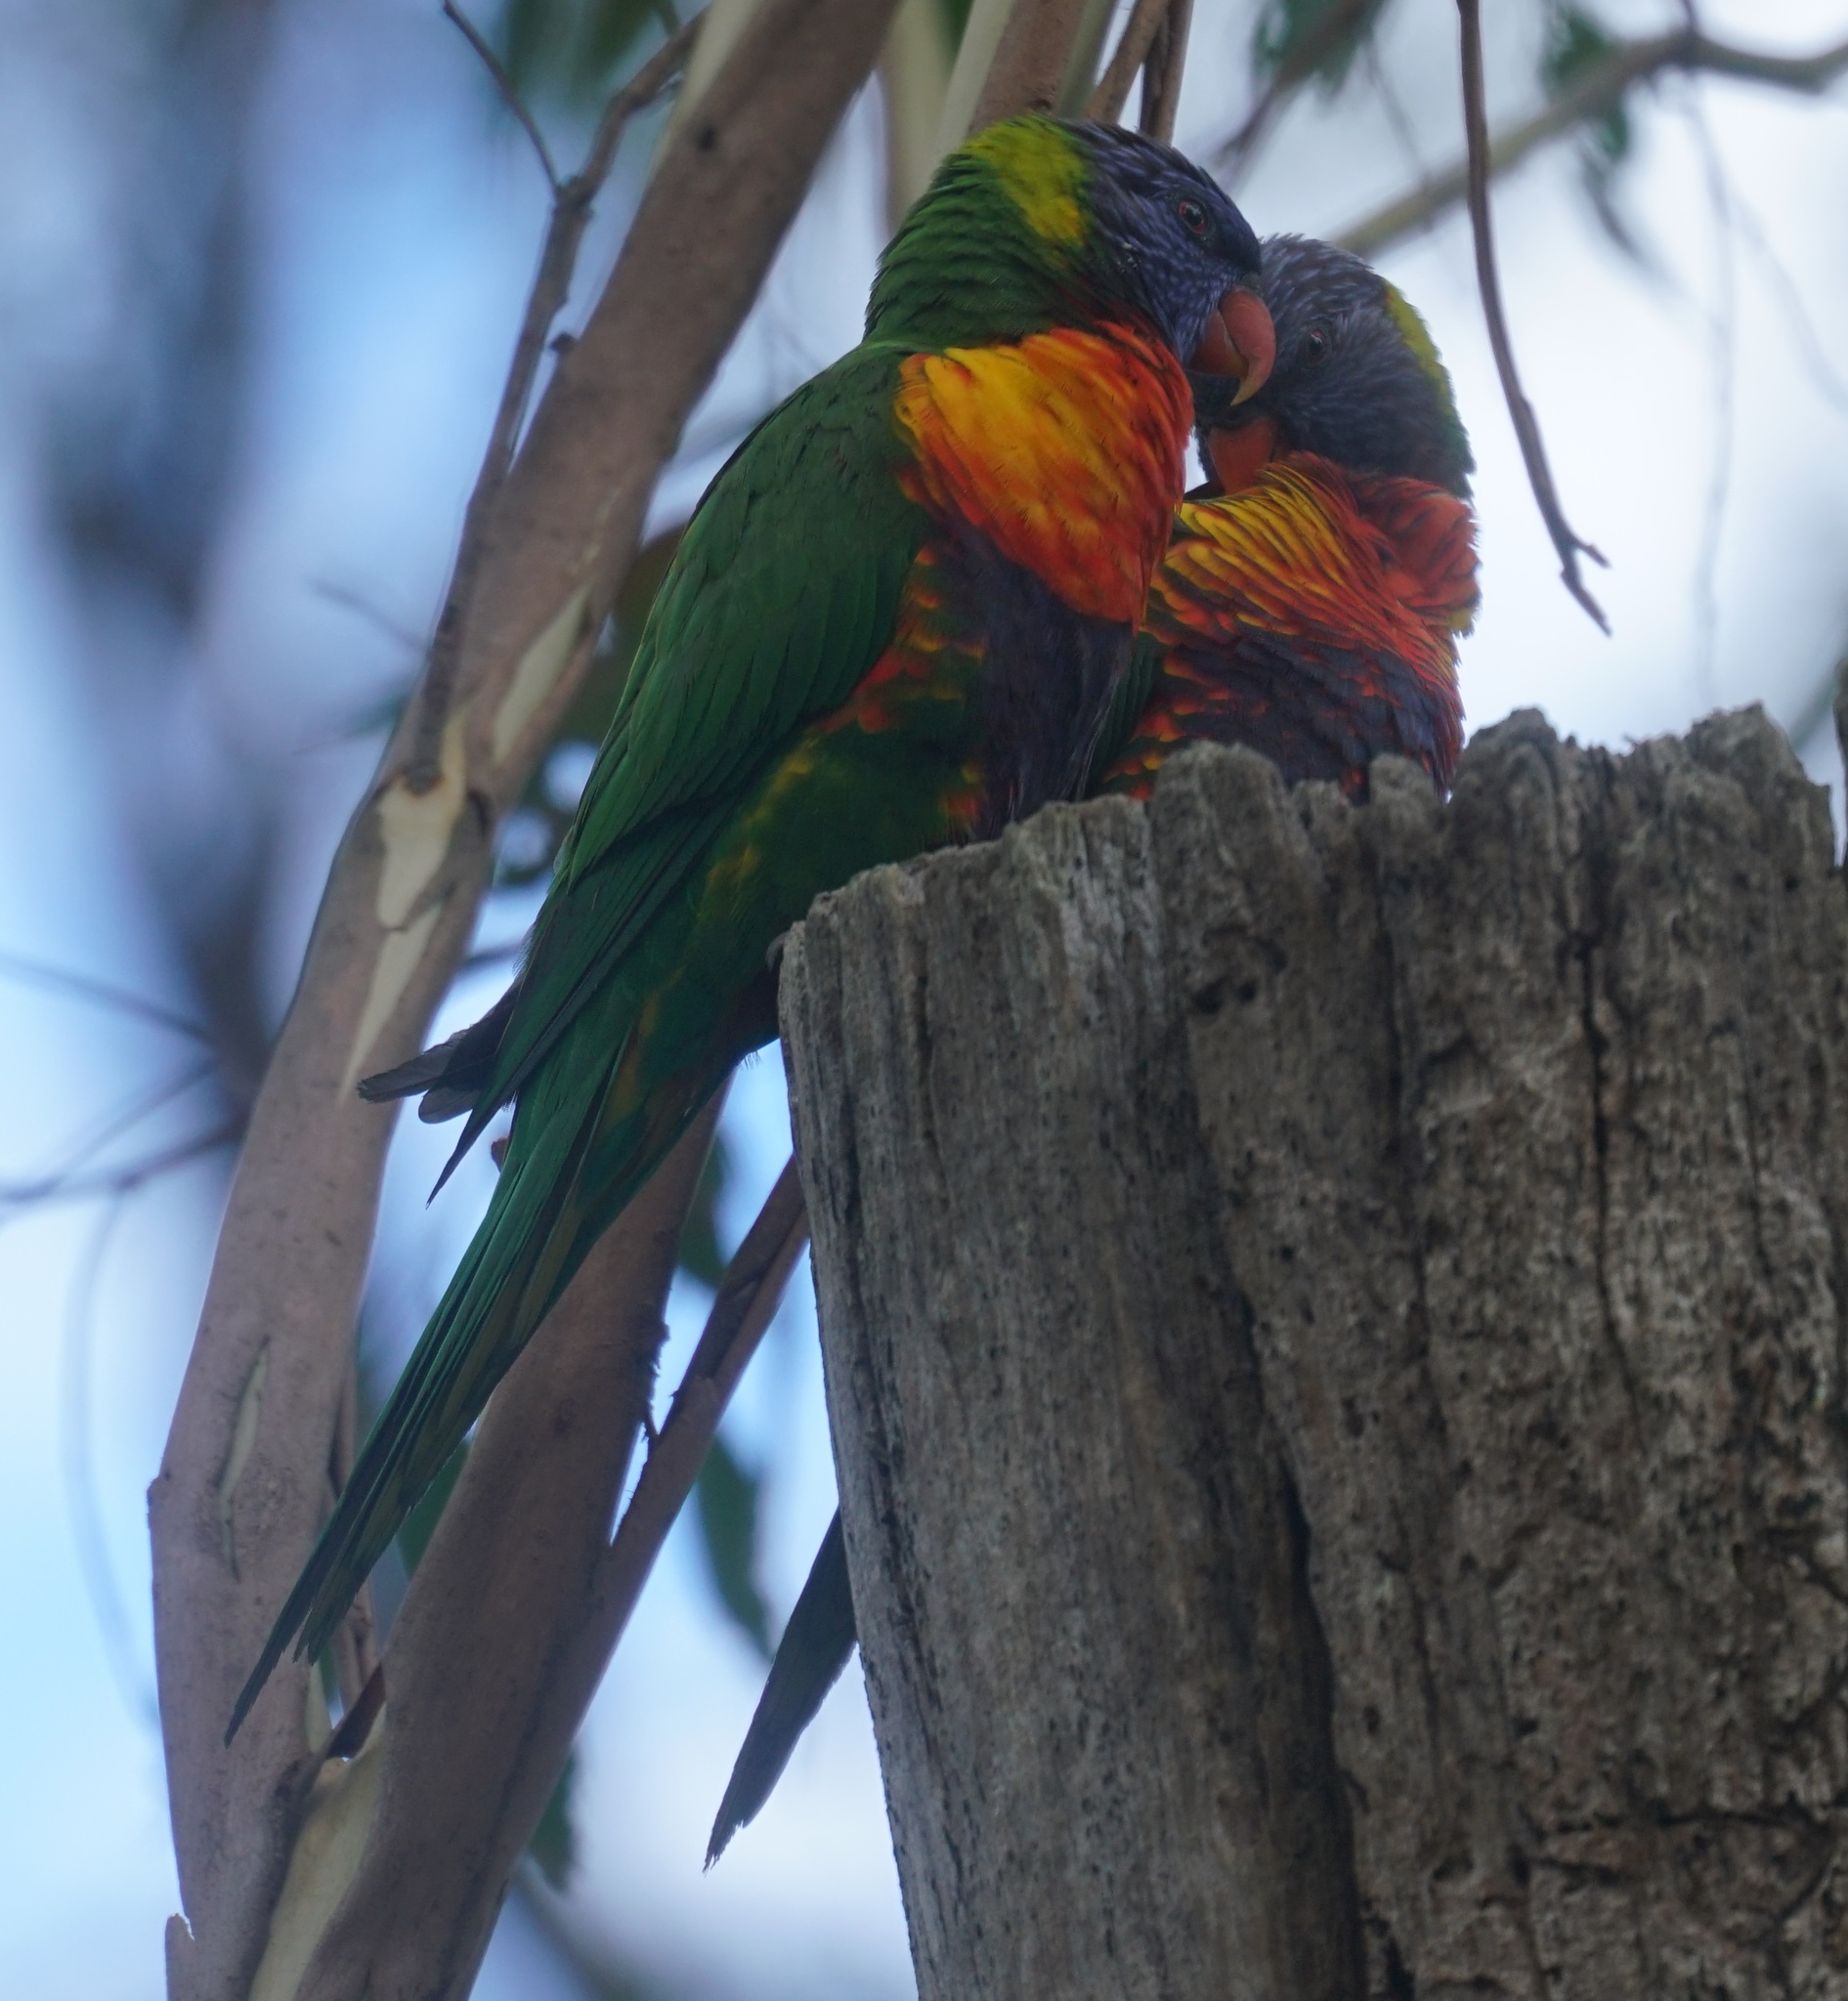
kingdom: Animalia
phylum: Chordata
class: Aves
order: Psittaciformes
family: Psittacidae
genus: Trichoglossus
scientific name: Trichoglossus haematodus
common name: Coconut lorikeet
